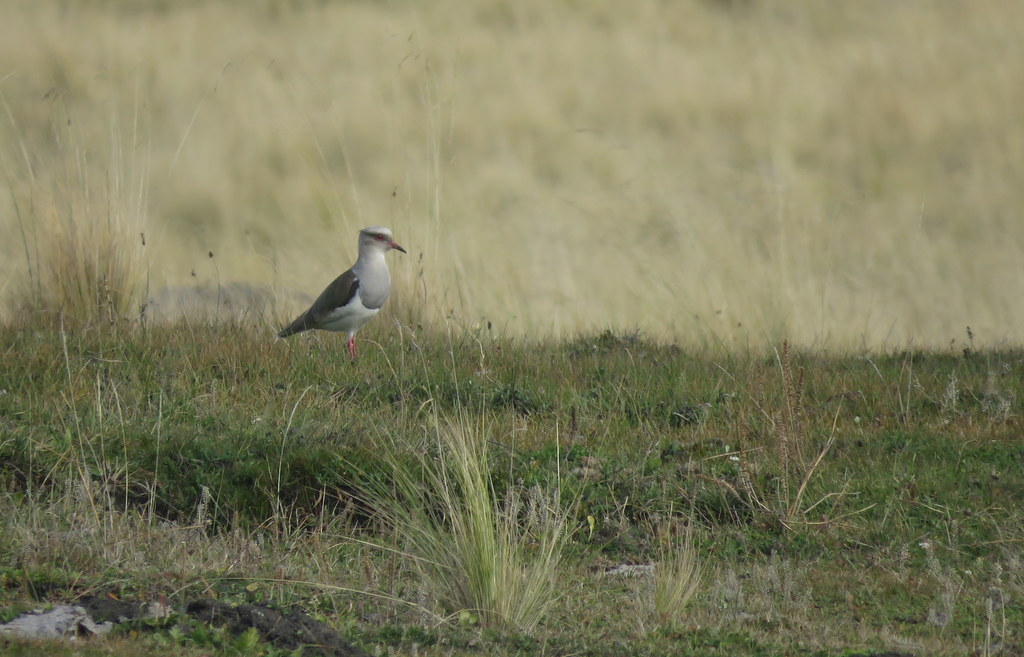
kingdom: Animalia
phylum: Chordata
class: Aves
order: Charadriiformes
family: Charadriidae
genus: Vanellus
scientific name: Vanellus resplendens
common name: Andean lapwing
